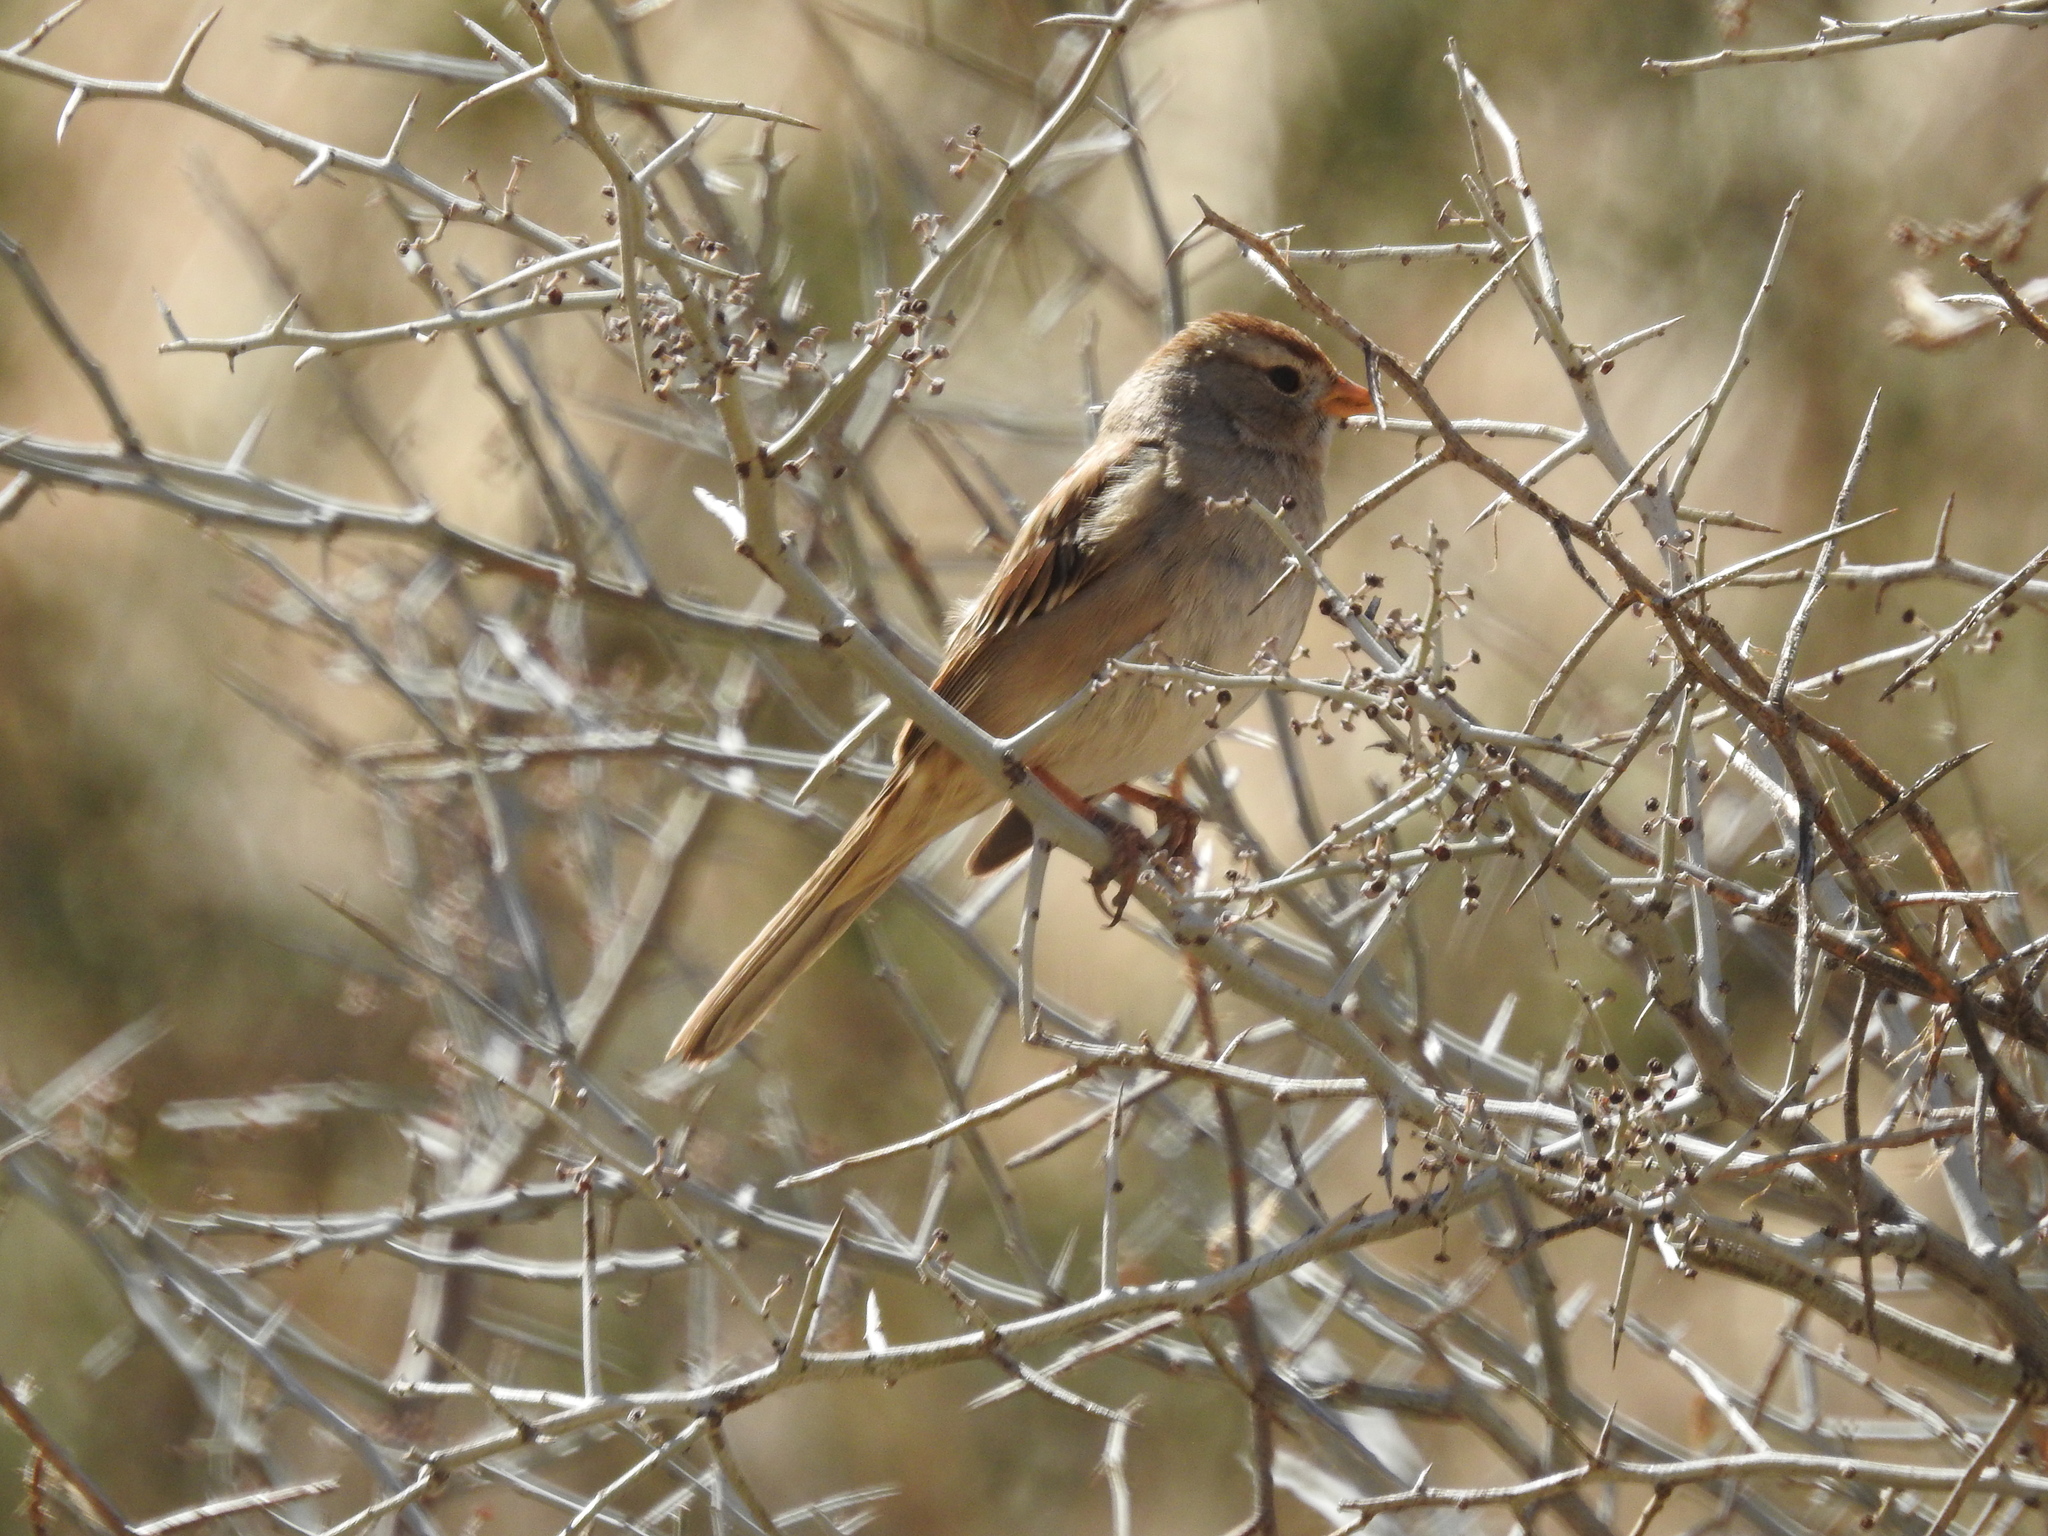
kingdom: Animalia
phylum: Chordata
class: Aves
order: Passeriformes
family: Passerellidae
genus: Zonotrichia
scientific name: Zonotrichia leucophrys
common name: White-crowned sparrow
